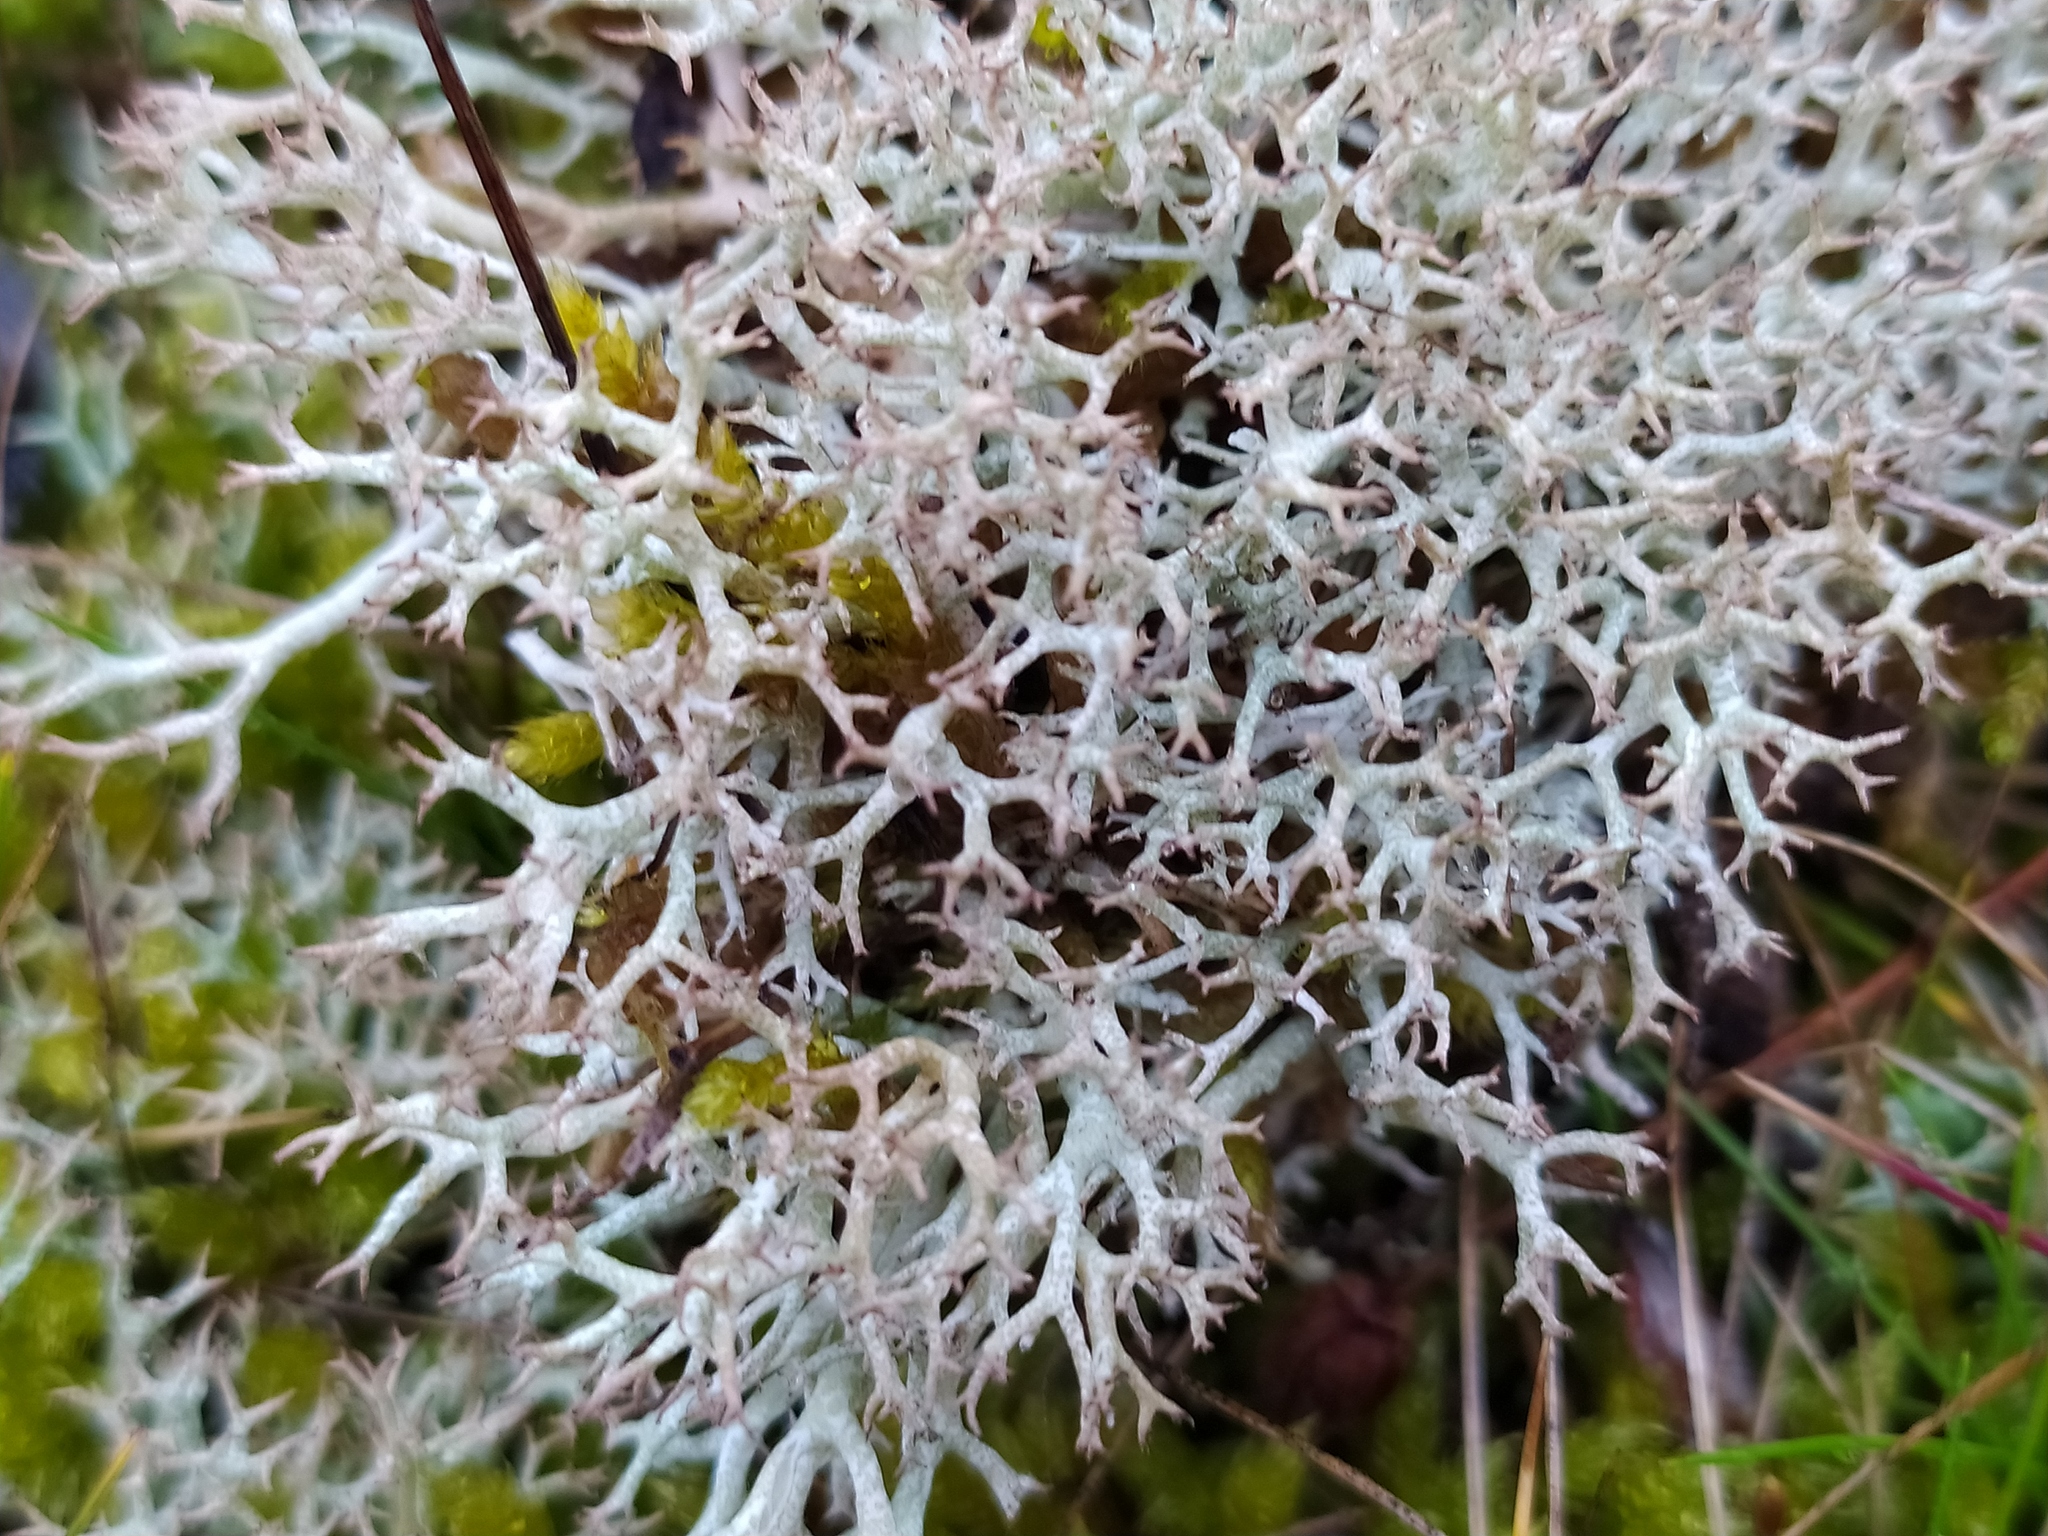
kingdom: Fungi
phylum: Ascomycota
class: Lecanoromycetes
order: Lecanorales
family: Cladoniaceae
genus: Cladonia
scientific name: Cladonia rangiformis
